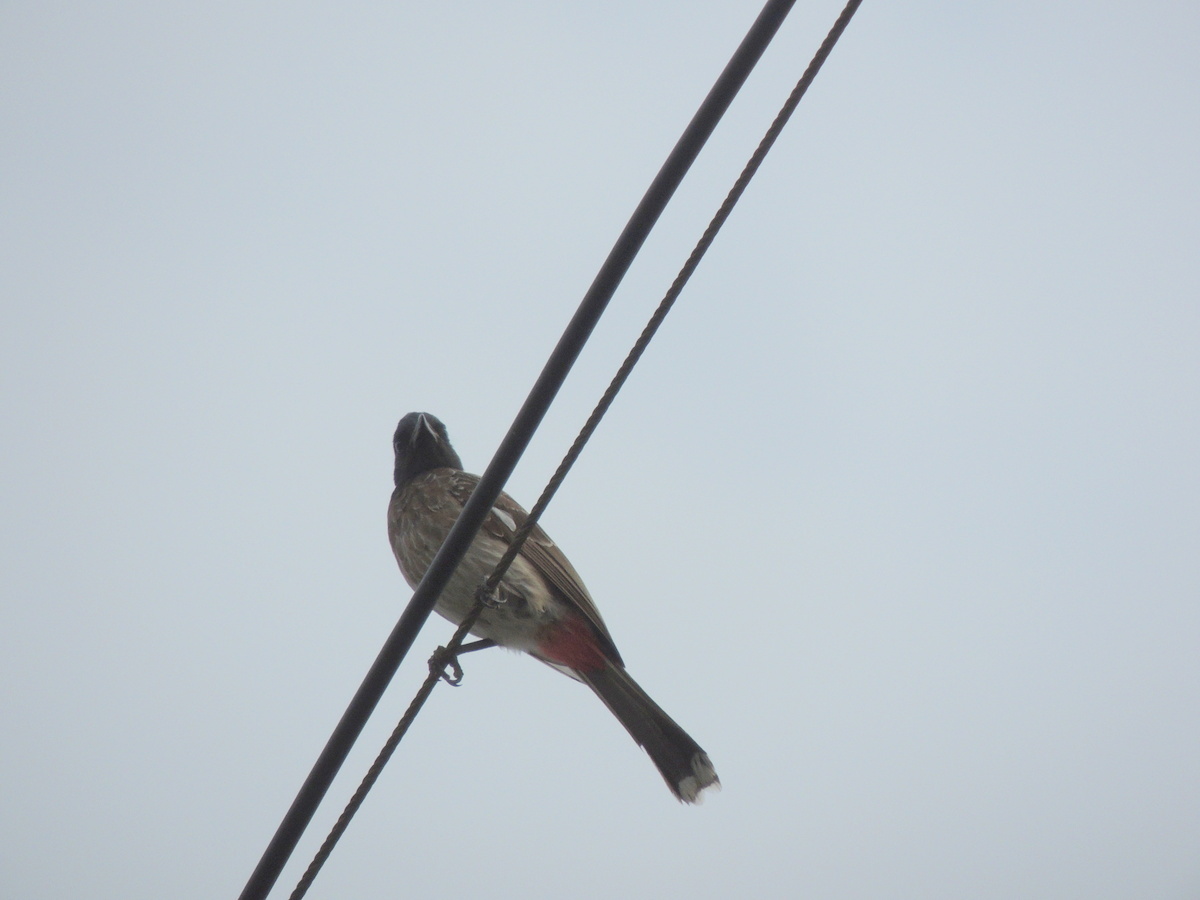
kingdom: Animalia
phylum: Chordata
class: Aves
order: Passeriformes
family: Pycnonotidae
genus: Pycnonotus
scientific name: Pycnonotus cafer
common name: Red-vented bulbul
